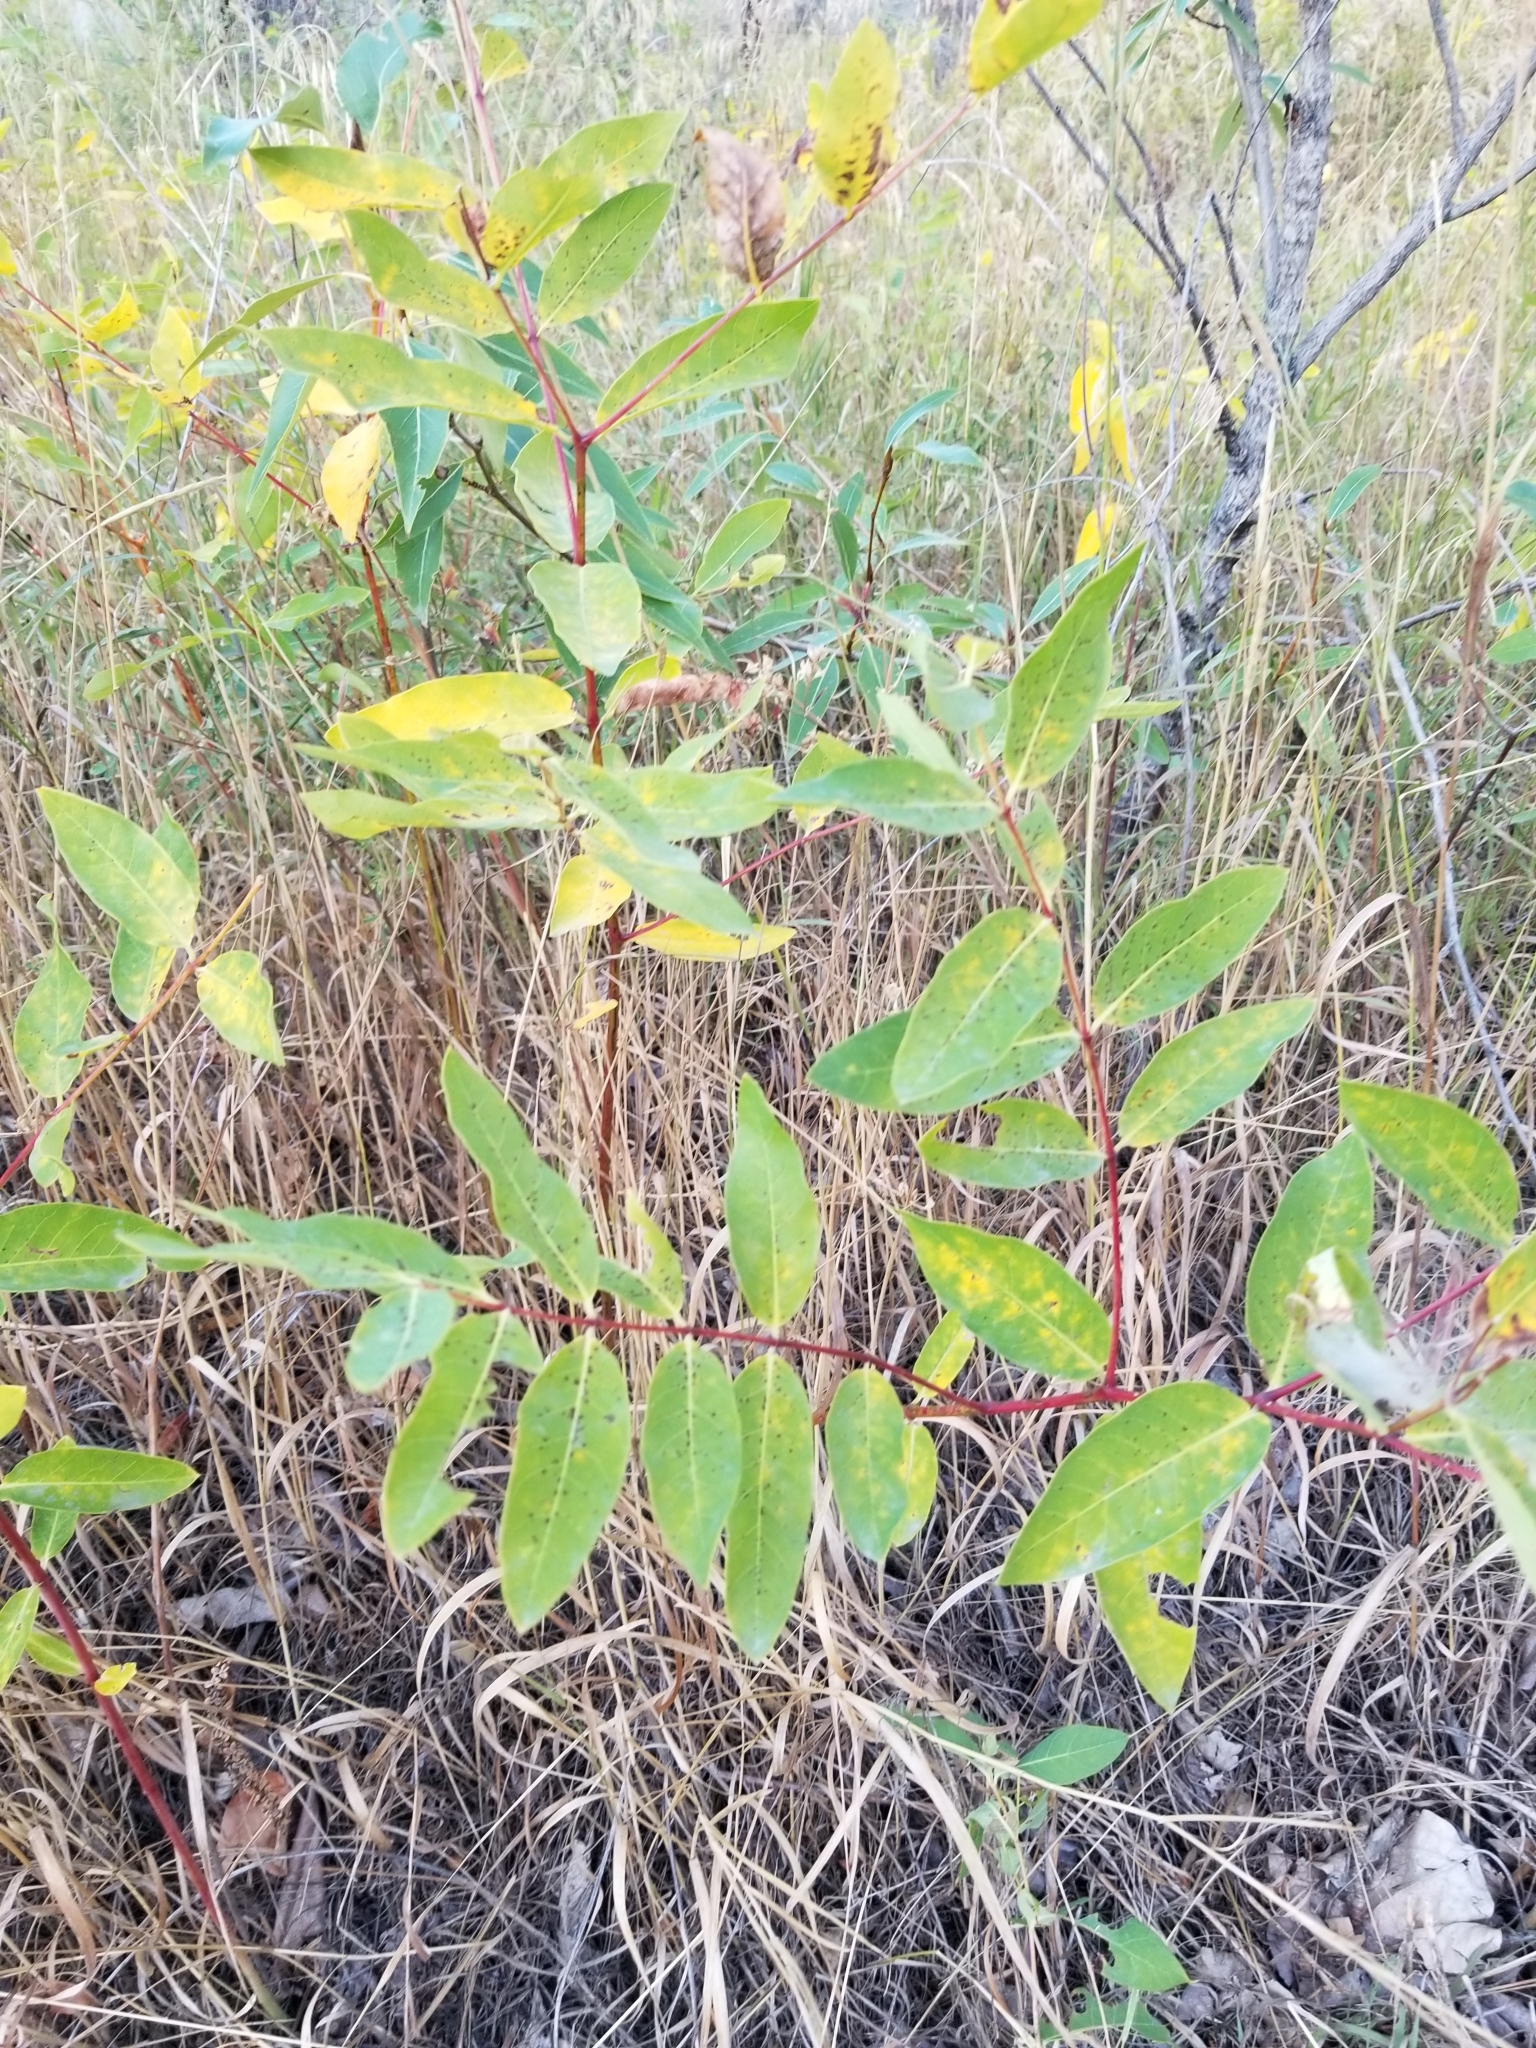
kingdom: Plantae
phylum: Tracheophyta
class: Magnoliopsida
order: Gentianales
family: Apocynaceae
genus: Apocynum
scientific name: Apocynum androsaemifolium
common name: Spreading dogbane
